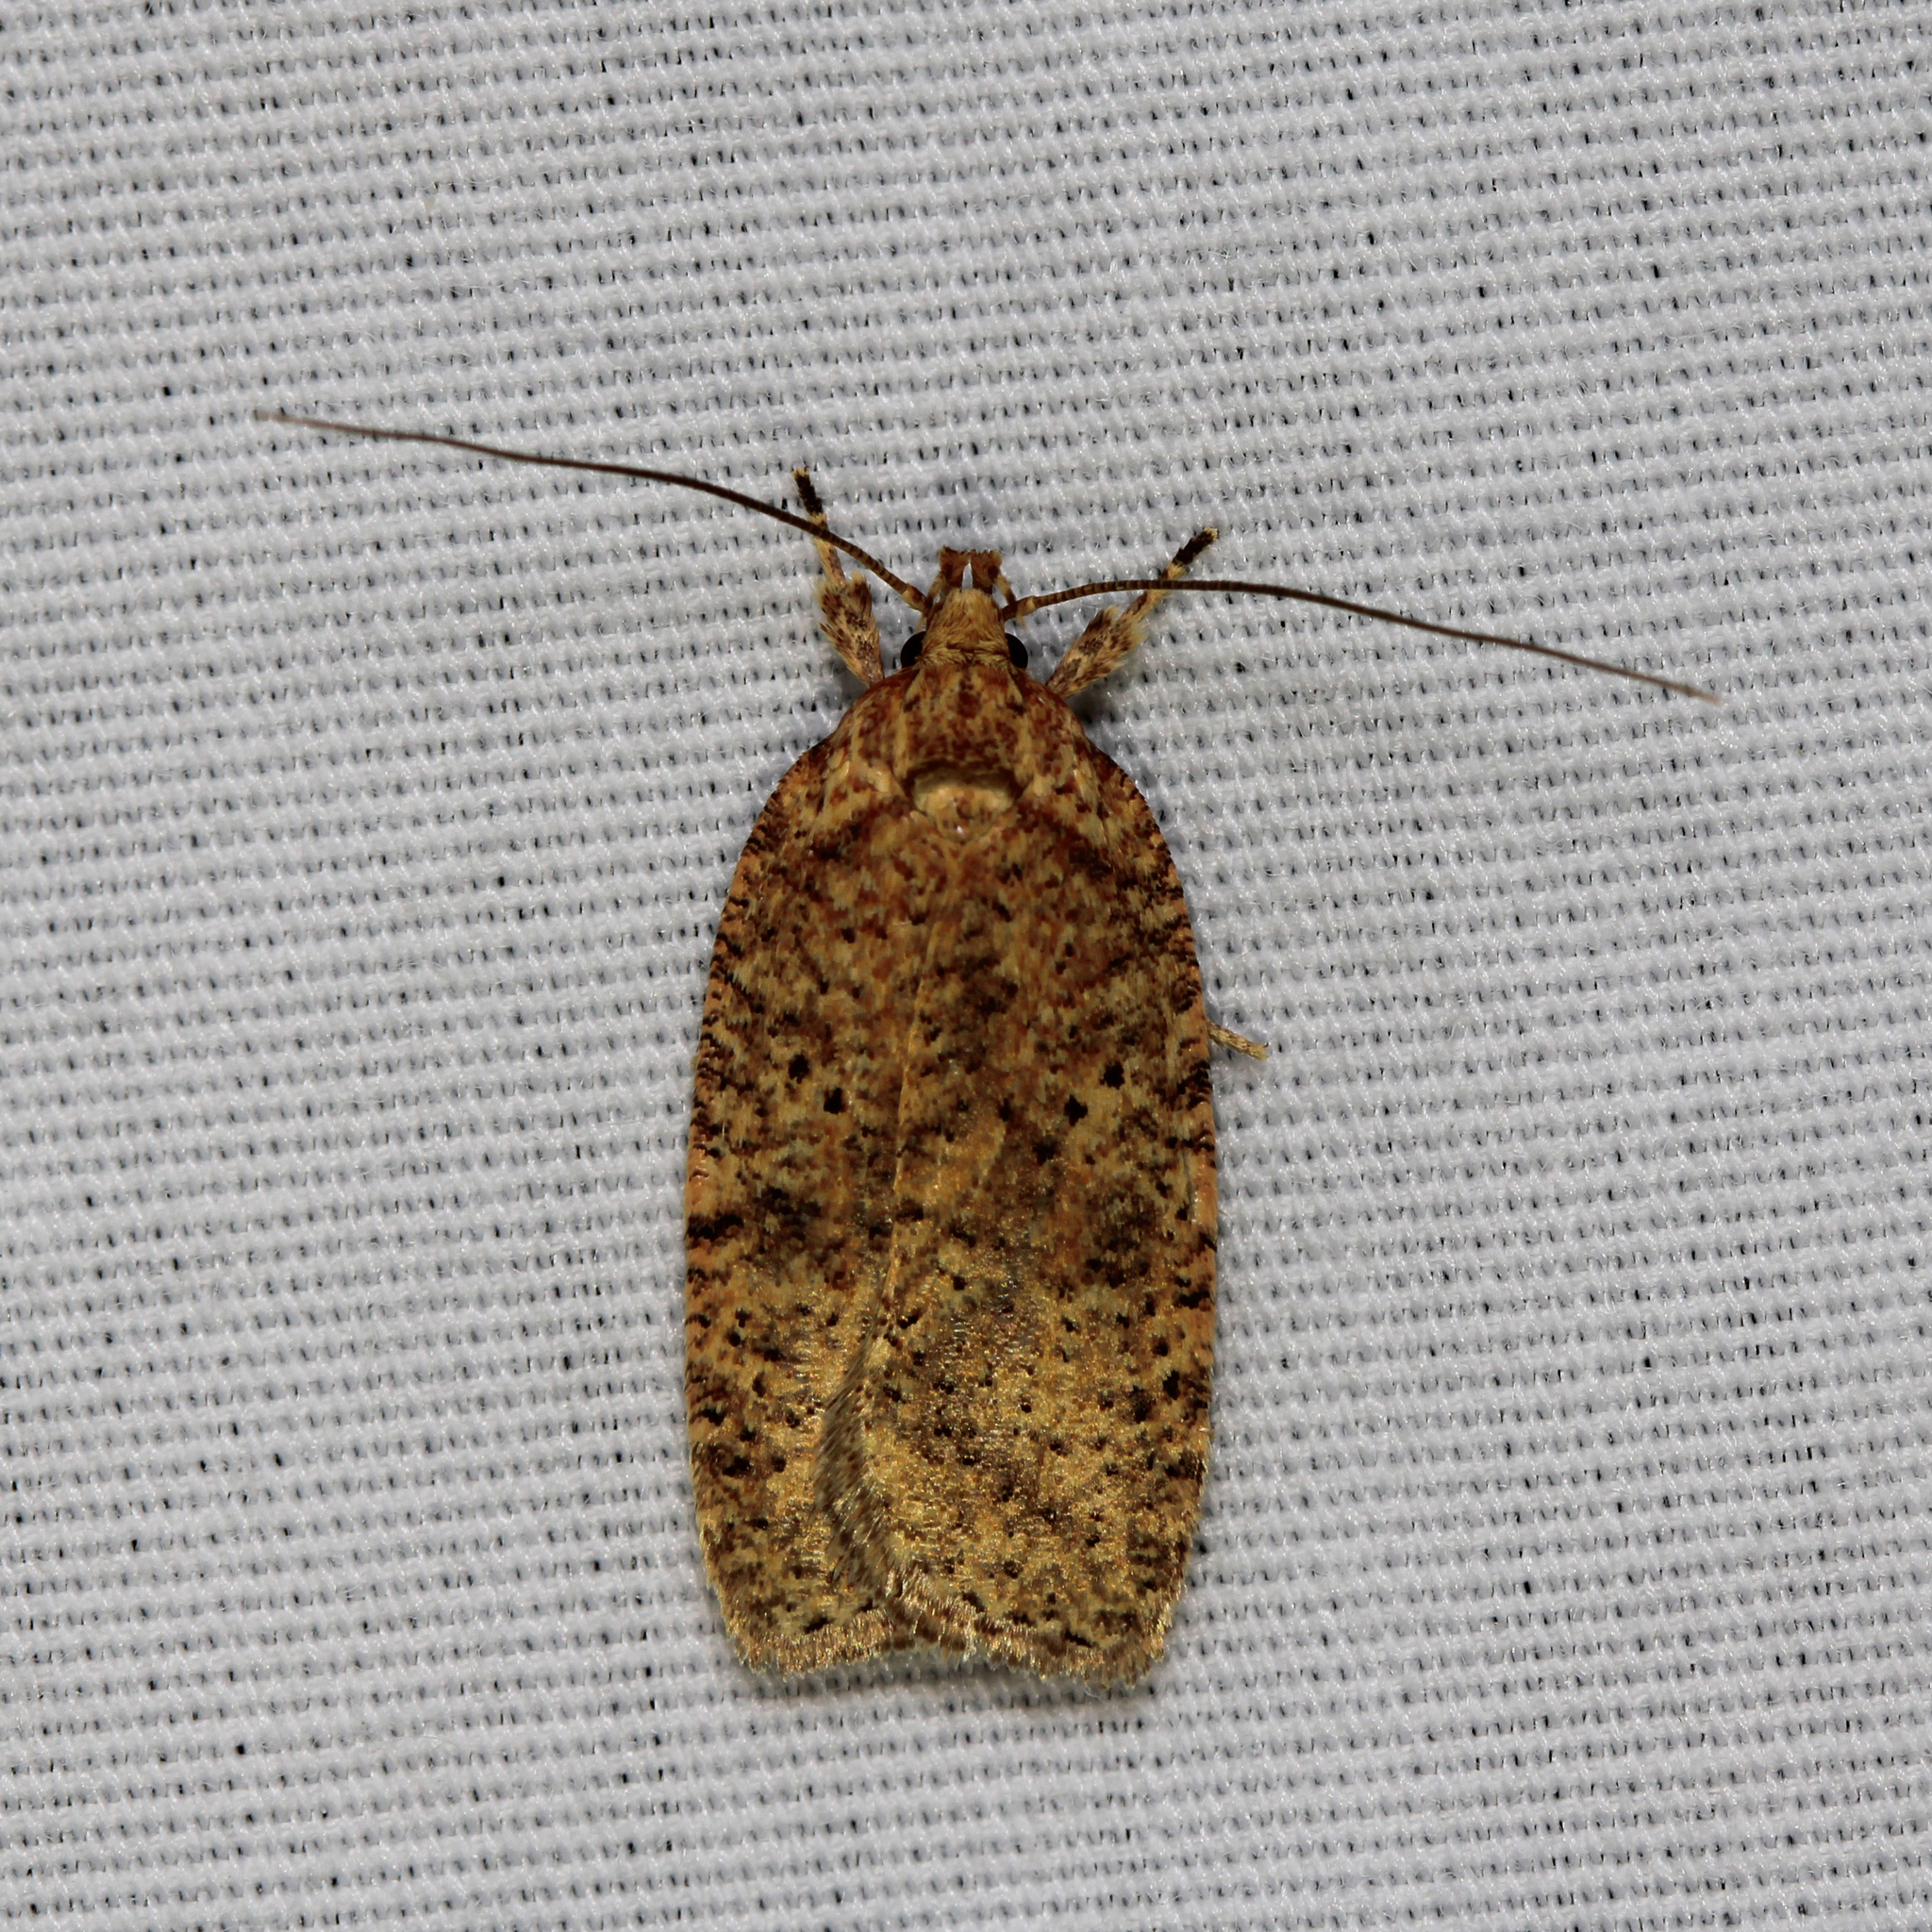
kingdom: Animalia
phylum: Arthropoda
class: Insecta
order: Lepidoptera
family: Depressariidae
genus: Agonopterix
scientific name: Agonopterix thelmae
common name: Thelma's agonopterix moth
